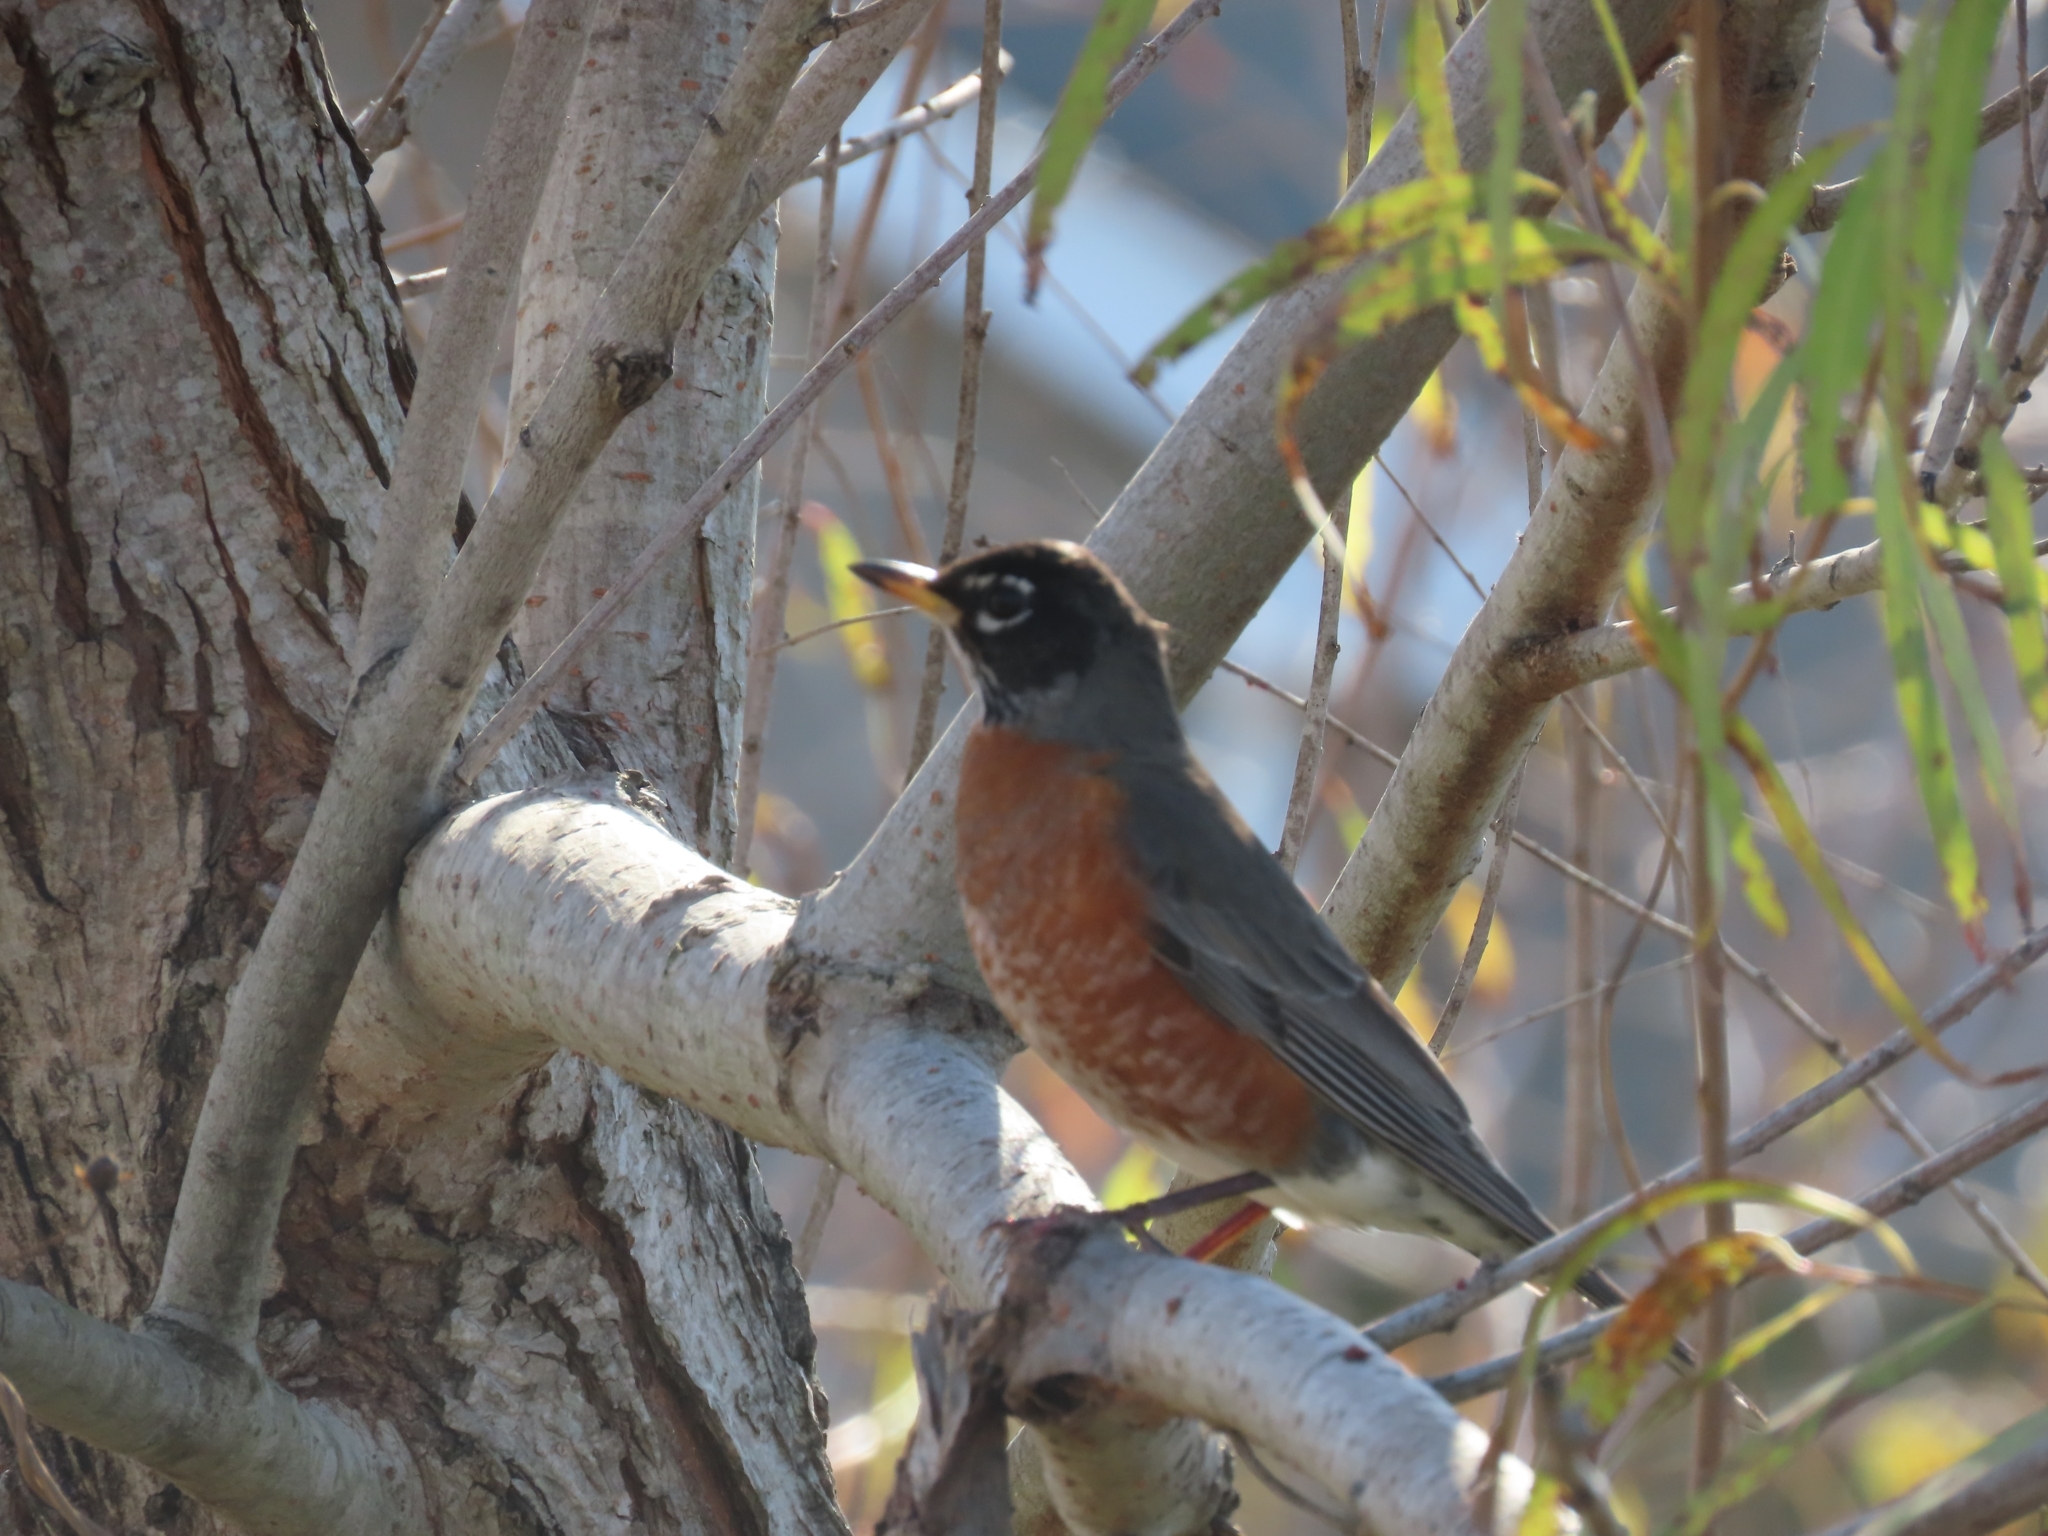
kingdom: Animalia
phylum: Chordata
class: Aves
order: Passeriformes
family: Turdidae
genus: Turdus
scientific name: Turdus migratorius
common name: American robin
